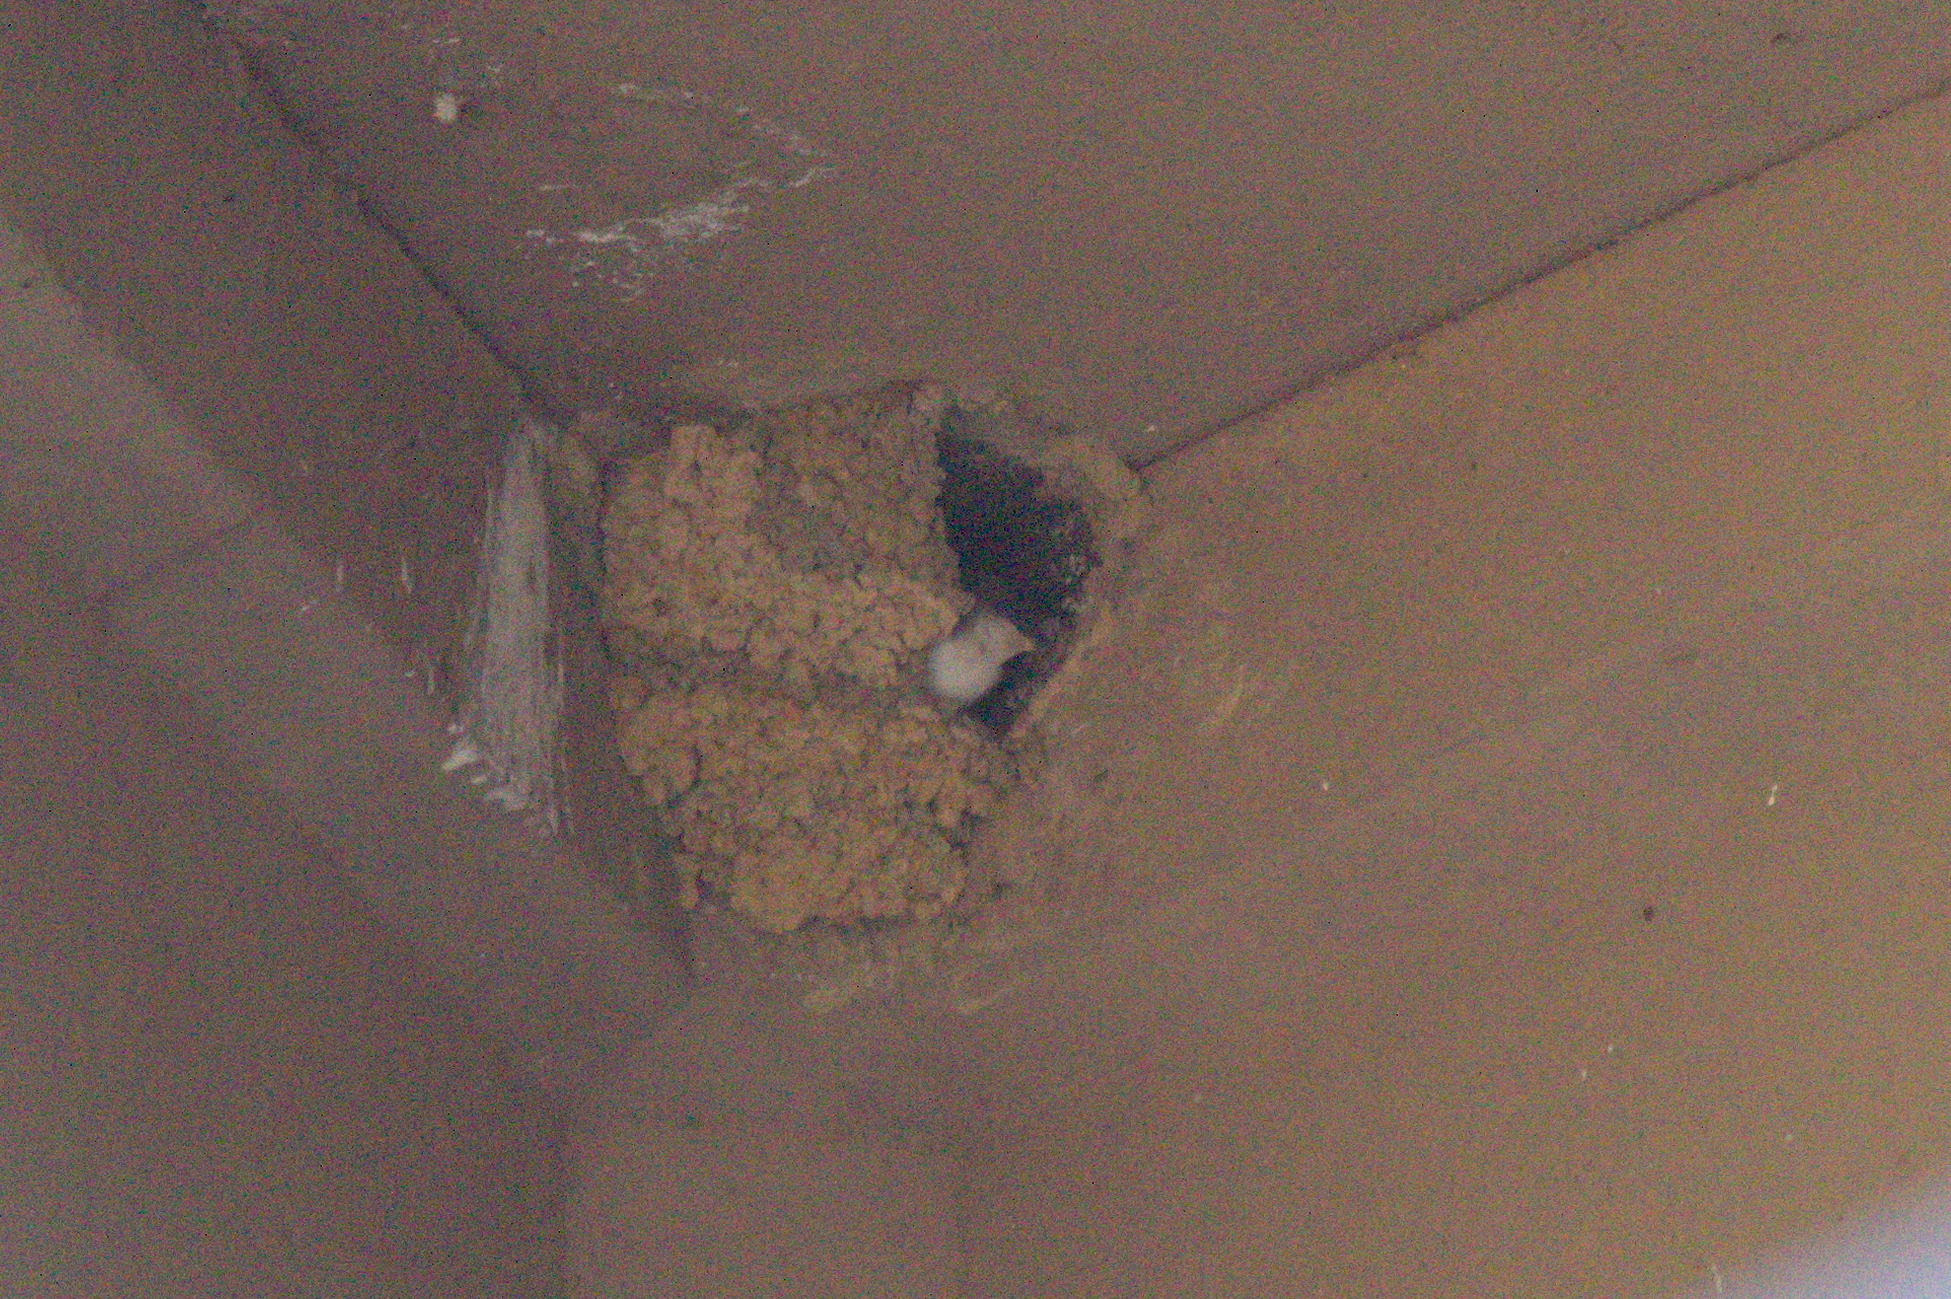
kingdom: Animalia
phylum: Chordata
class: Aves
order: Passeriformes
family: Hirundinidae
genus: Hirundo
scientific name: Hirundo rustica
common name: Barn swallow
